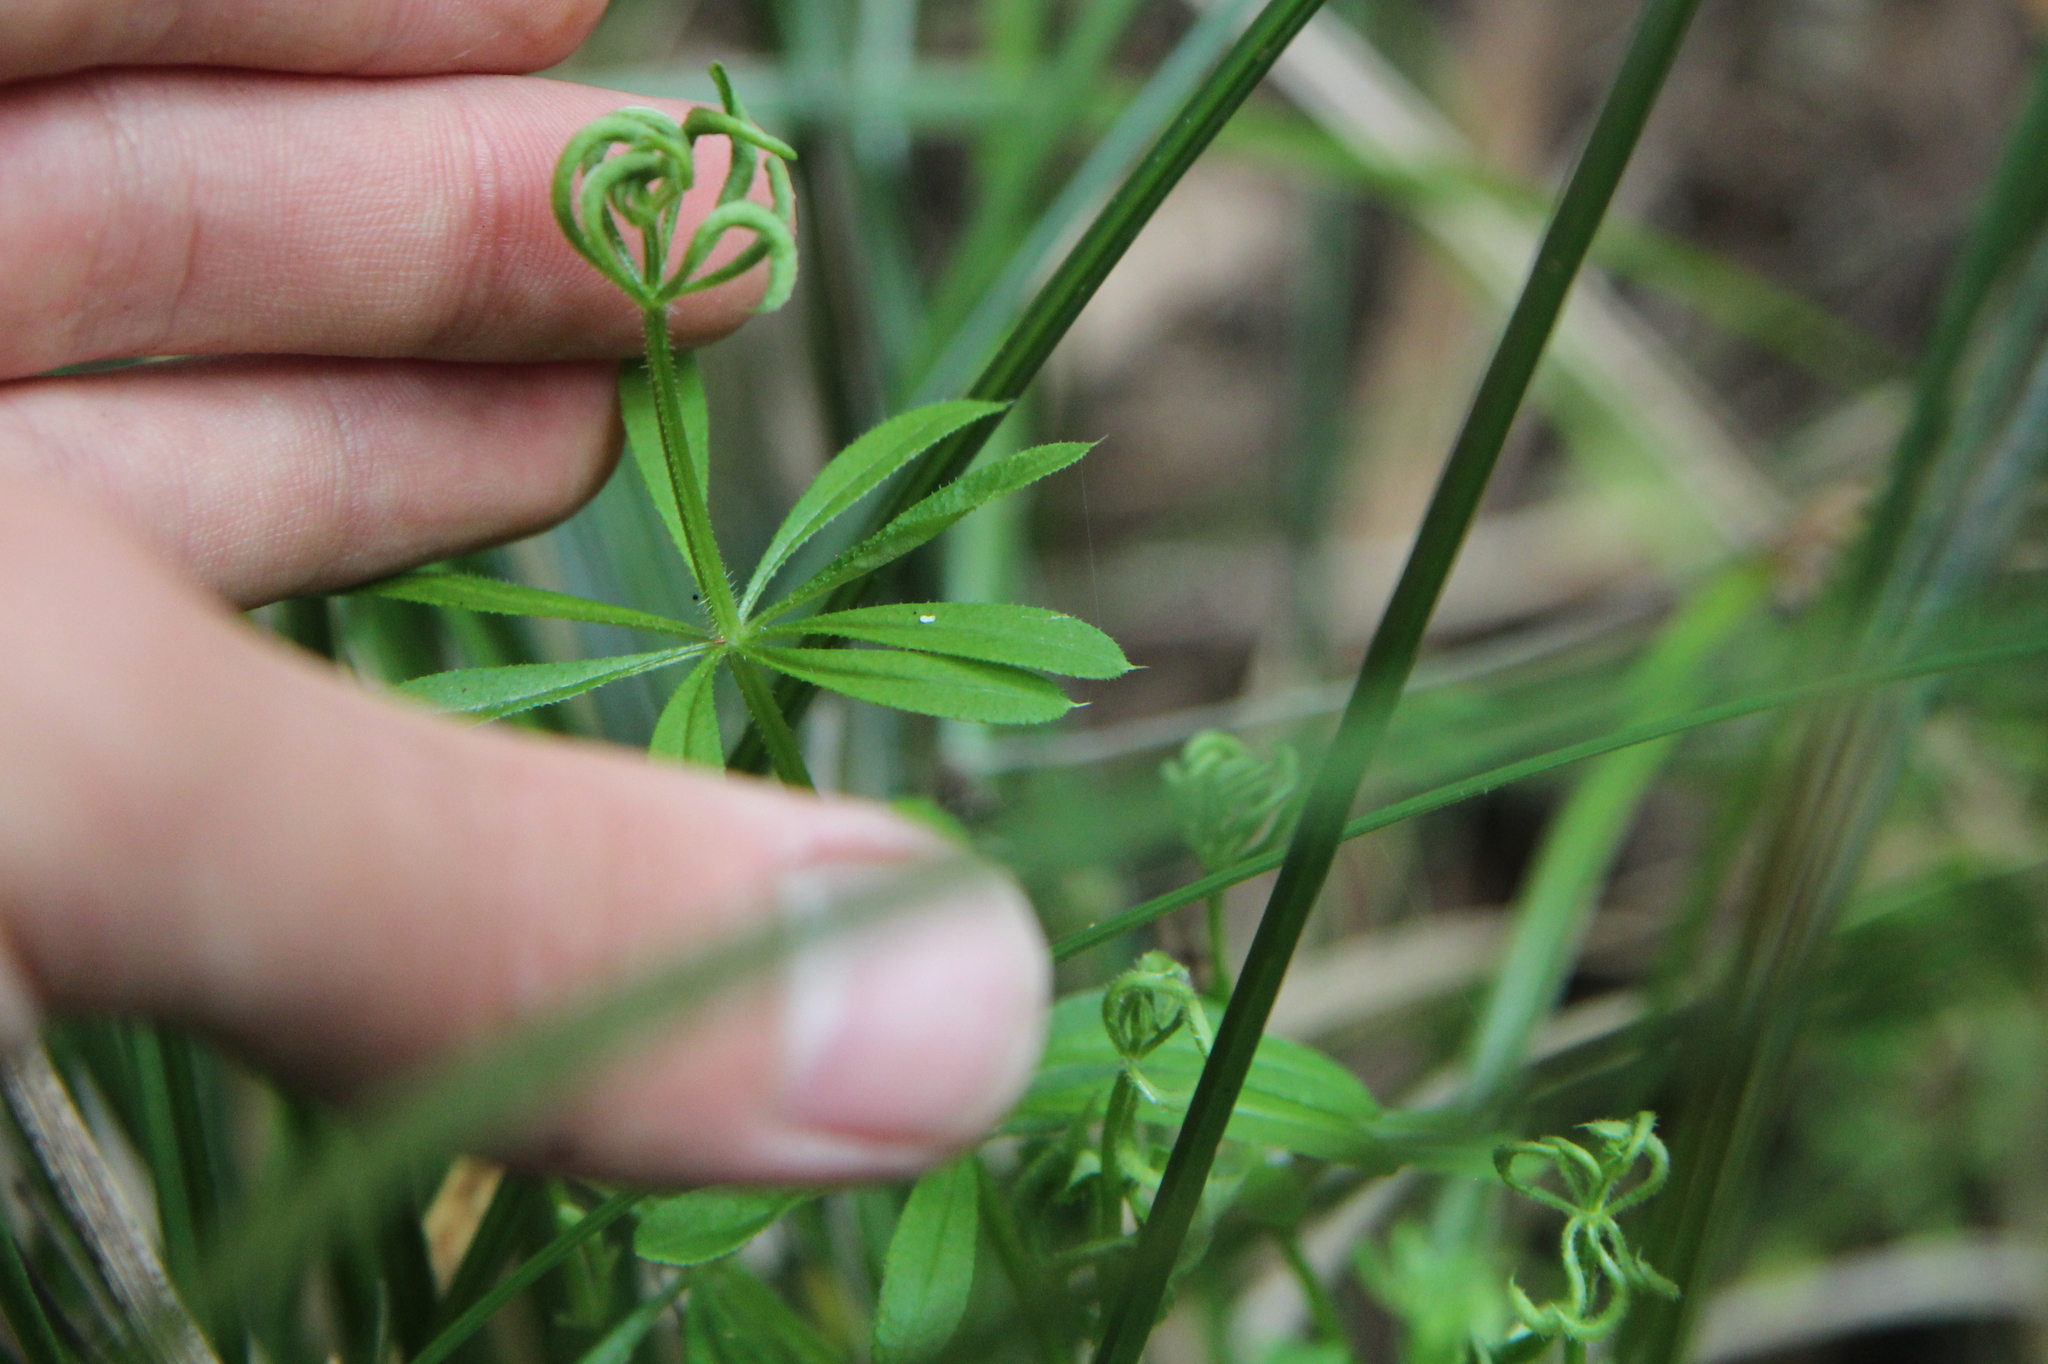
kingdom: Animalia
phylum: Arthropoda
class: Arachnida
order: Trombidiformes
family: Eriophyidae
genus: Cecidophyes
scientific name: Cecidophyes rouhollahi
